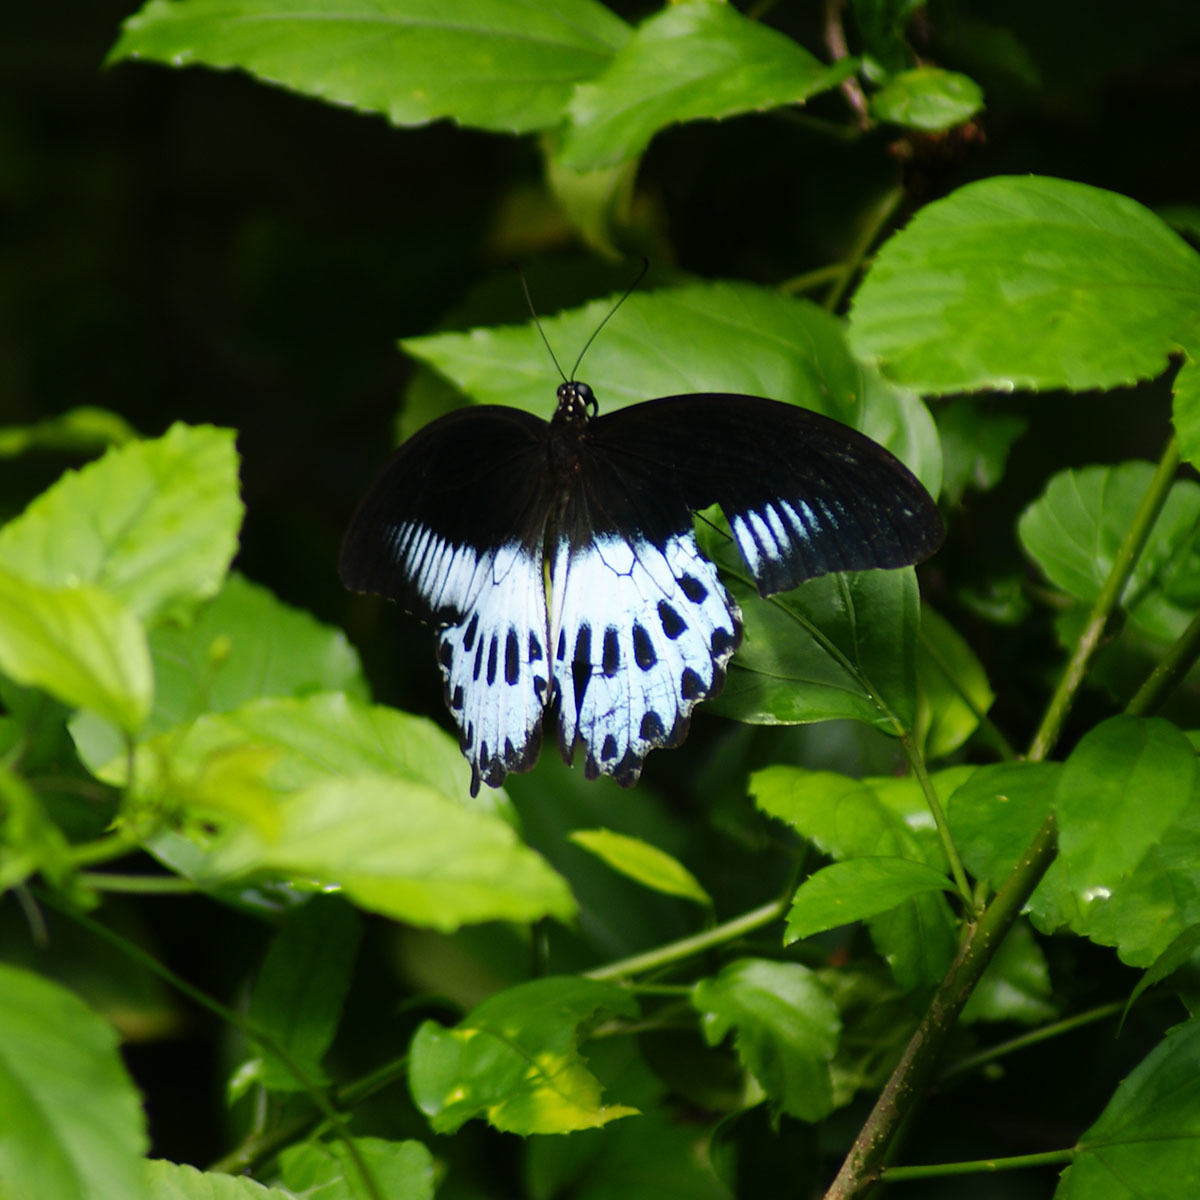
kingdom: Animalia
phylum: Arthropoda
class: Insecta
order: Lepidoptera
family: Papilionidae
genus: Papilio
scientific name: Papilio memnon
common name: Great mormon
